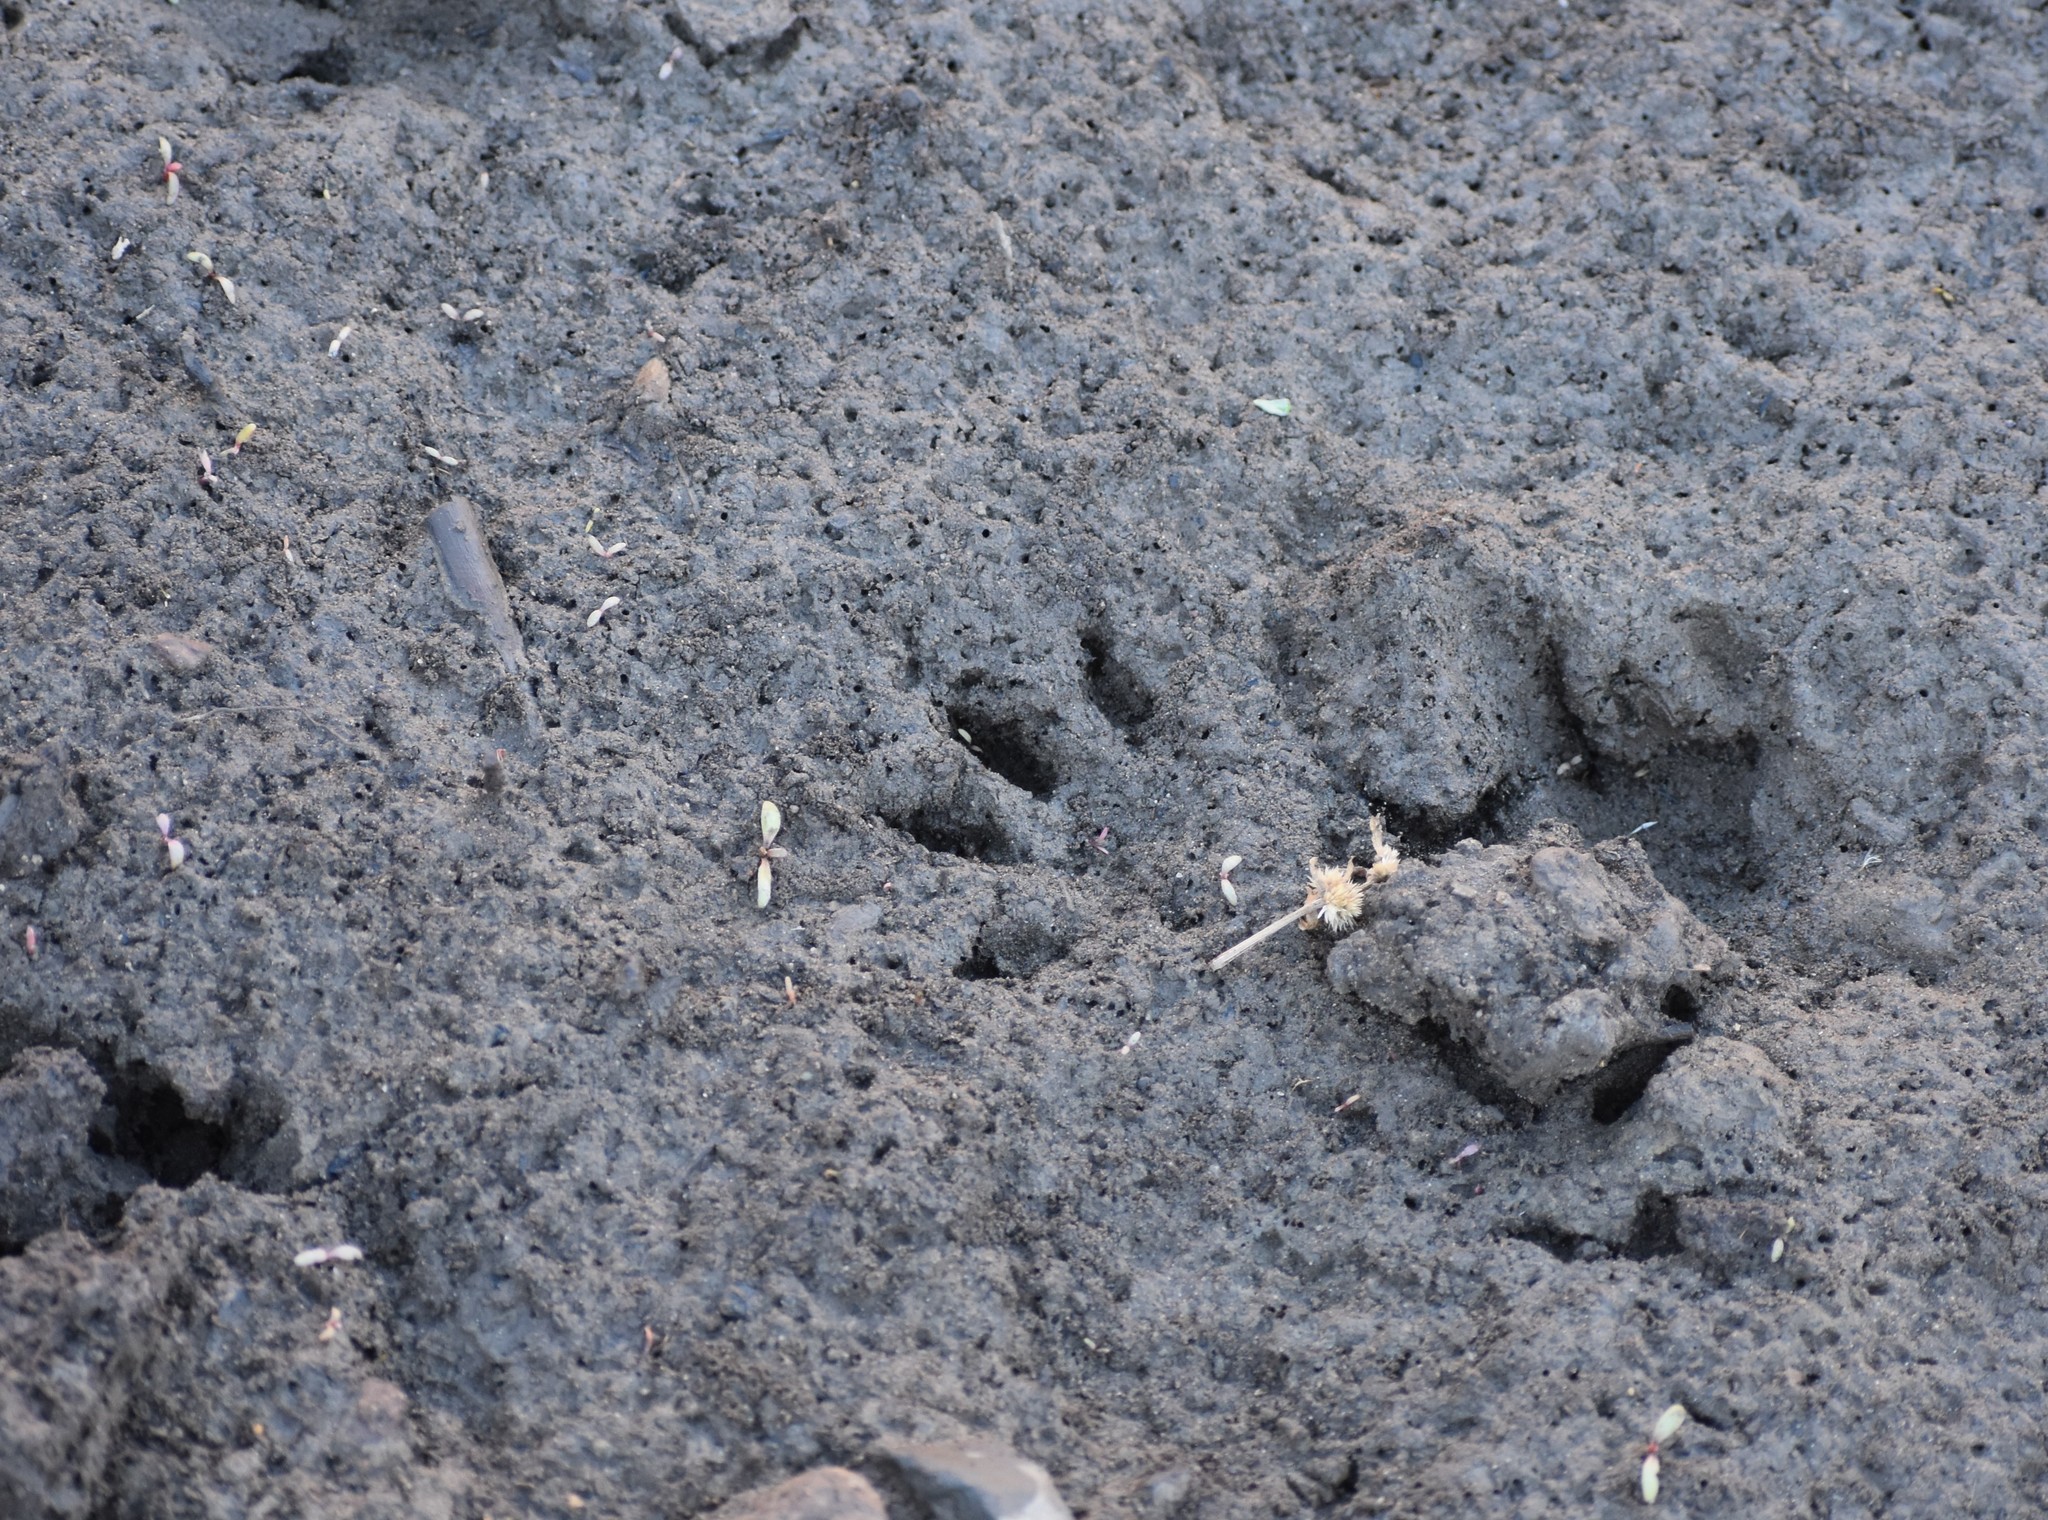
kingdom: Animalia
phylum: Chordata
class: Mammalia
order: Carnivora
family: Herpestidae
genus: Atilax
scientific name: Atilax paludinosus
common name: Marsh mongoose
